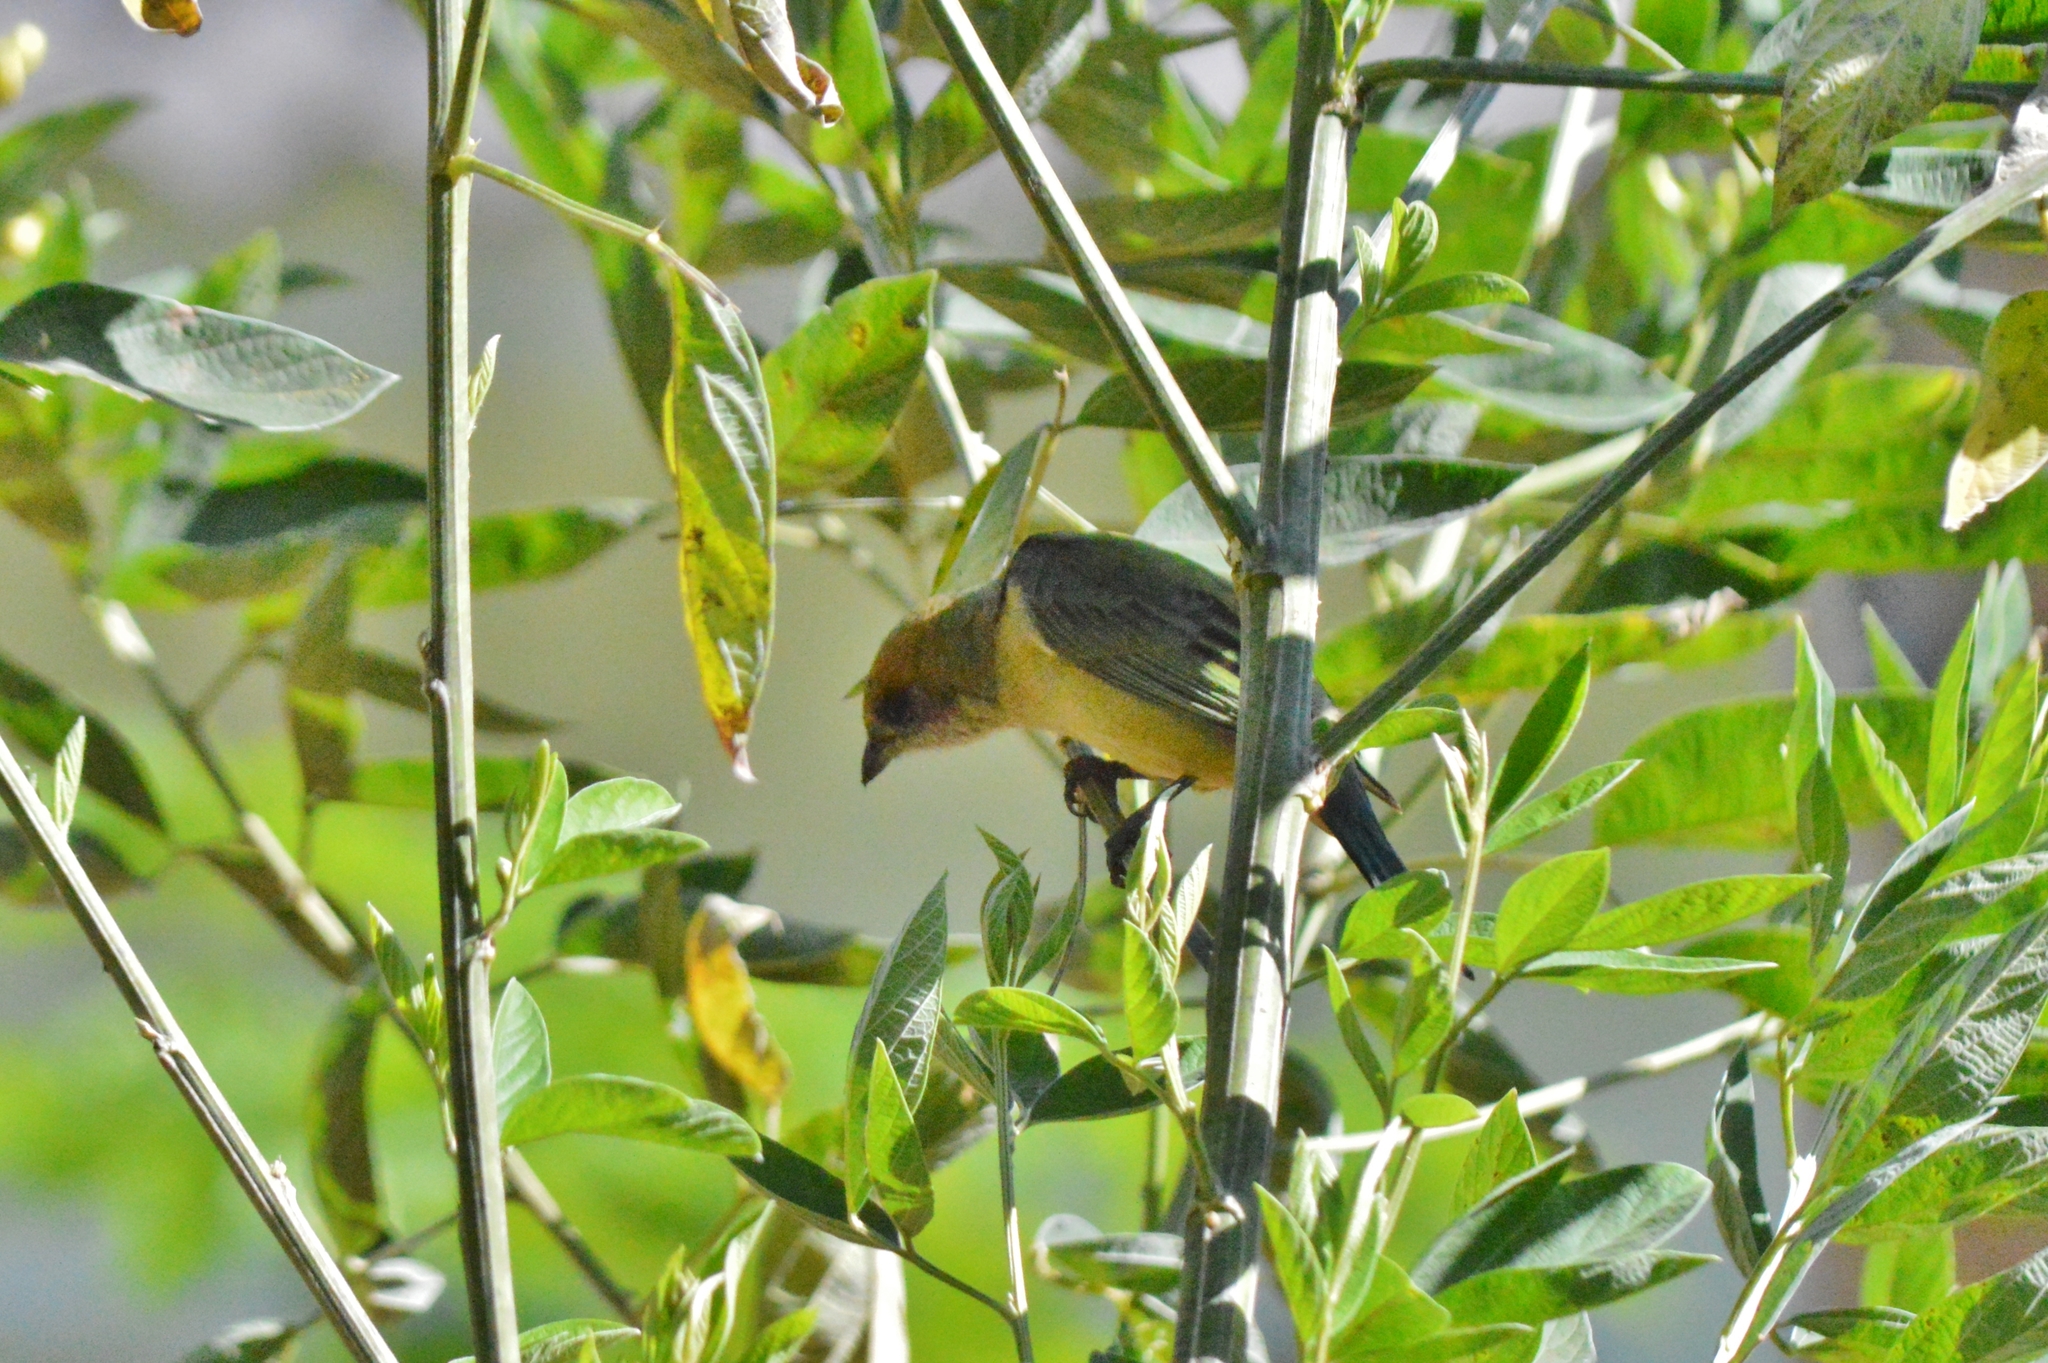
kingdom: Animalia
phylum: Chordata
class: Aves
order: Passeriformes
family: Thraupidae
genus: Stilpnia
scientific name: Stilpnia cayana
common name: Burnished-buff tanager
